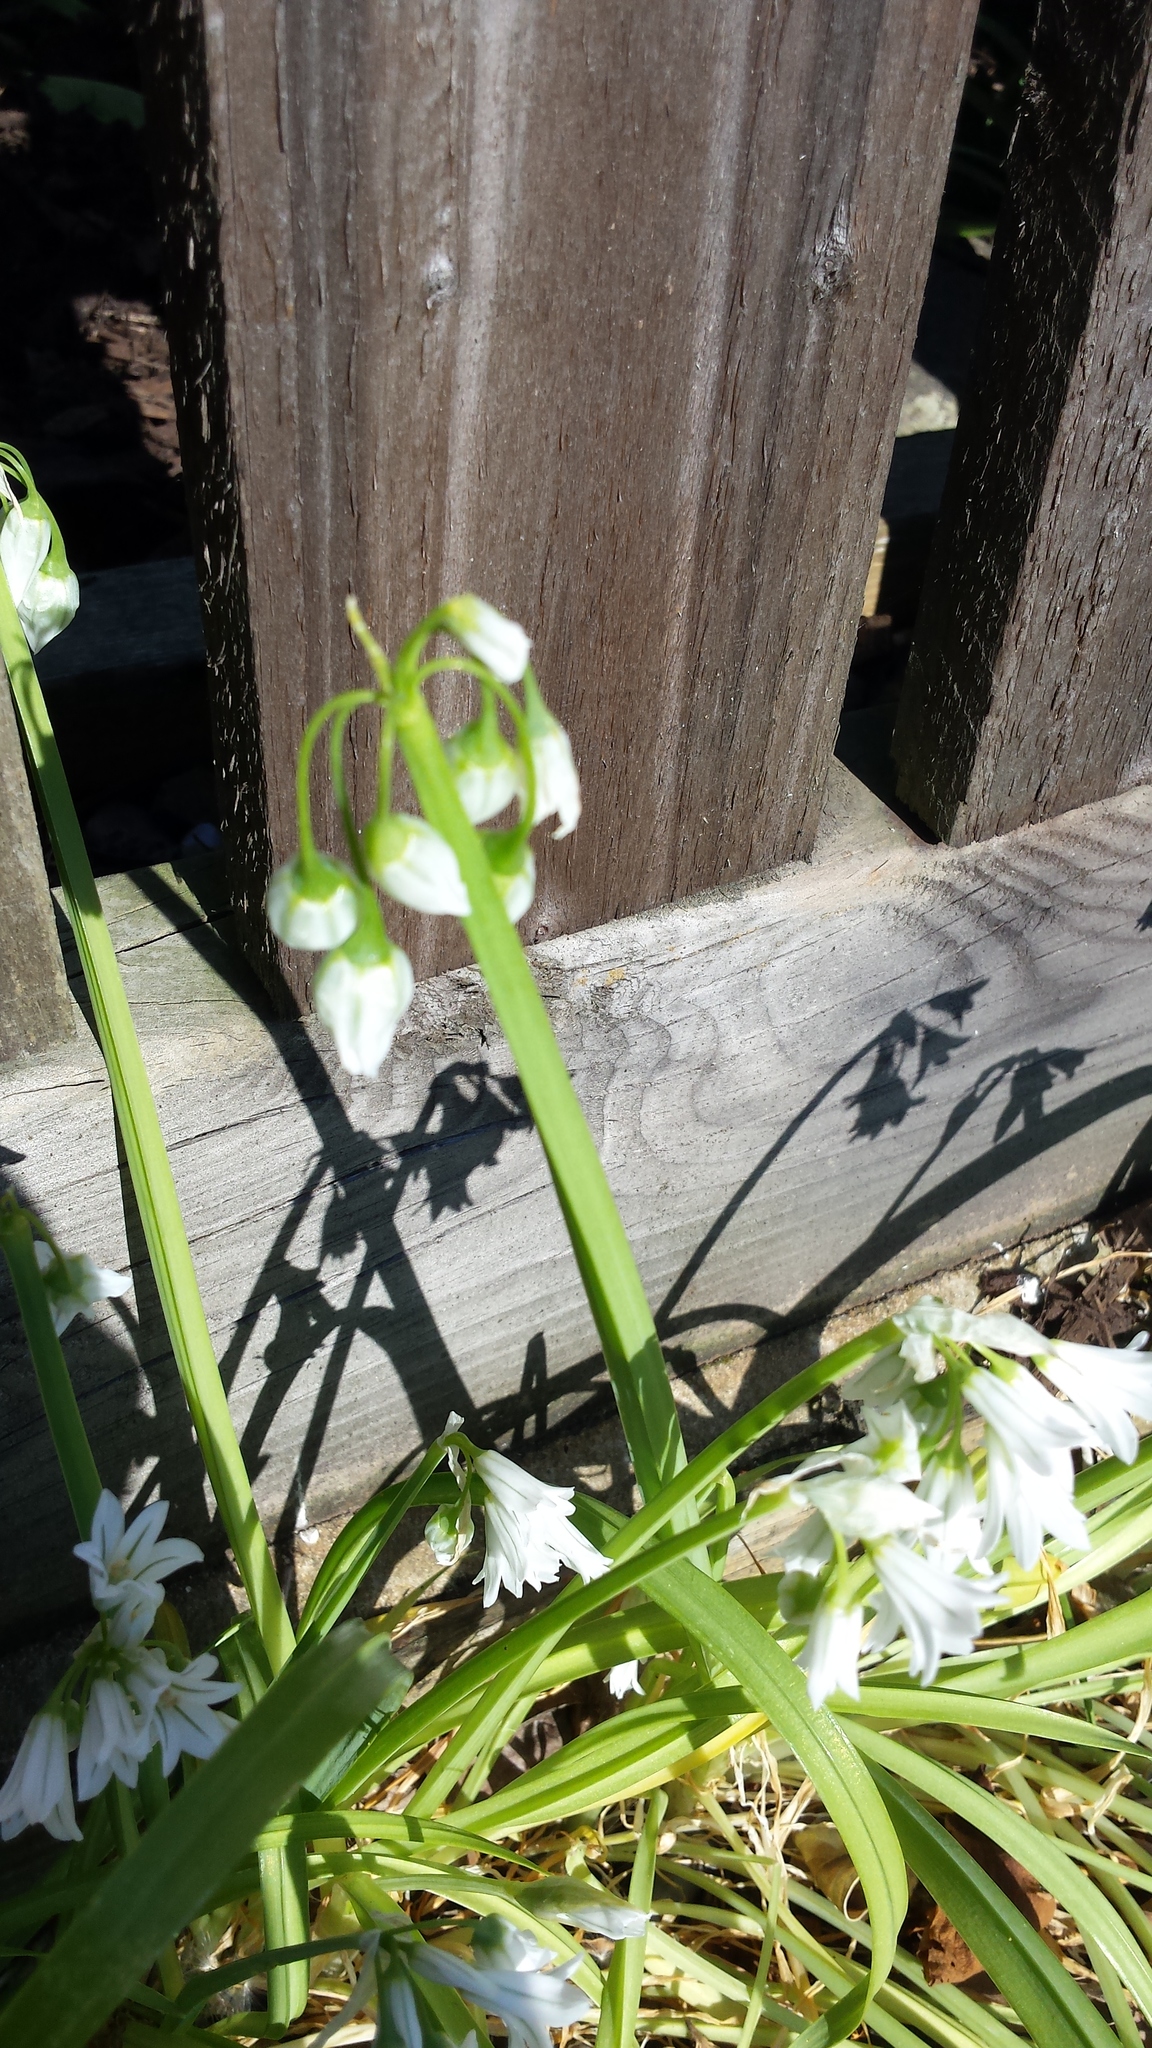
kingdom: Plantae
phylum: Tracheophyta
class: Liliopsida
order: Asparagales
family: Amaryllidaceae
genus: Allium
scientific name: Allium triquetrum
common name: Three-cornered garlic
